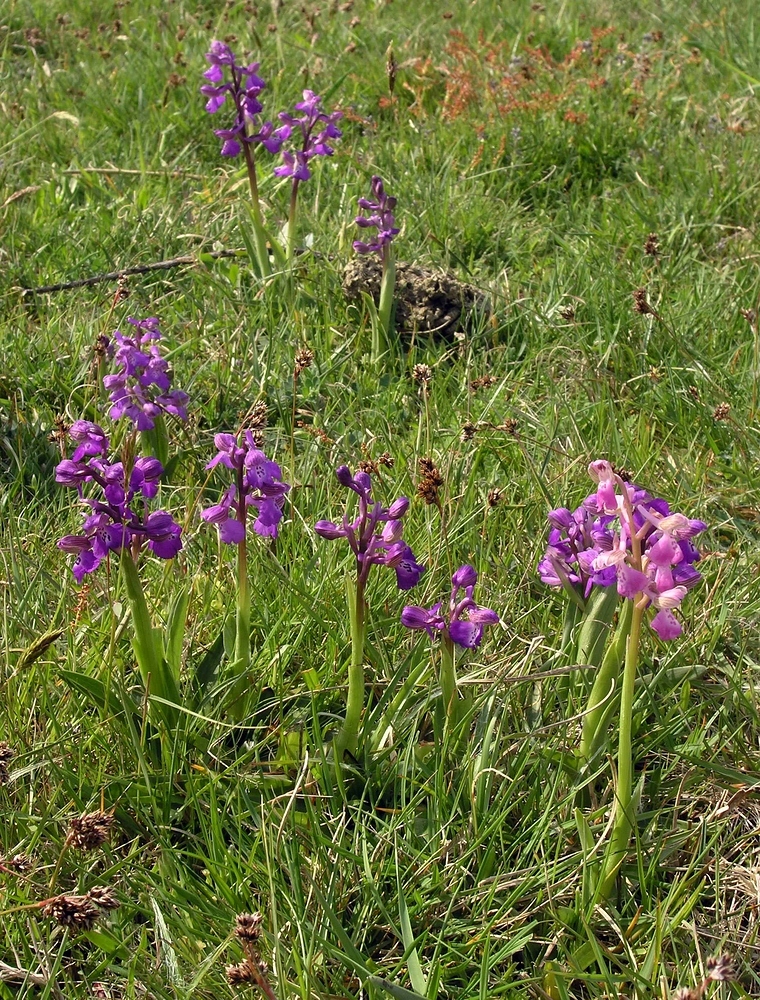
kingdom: Plantae
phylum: Tracheophyta
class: Liliopsida
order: Asparagales
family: Orchidaceae
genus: Anacamptis
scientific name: Anacamptis morio
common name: Green-winged orchid
